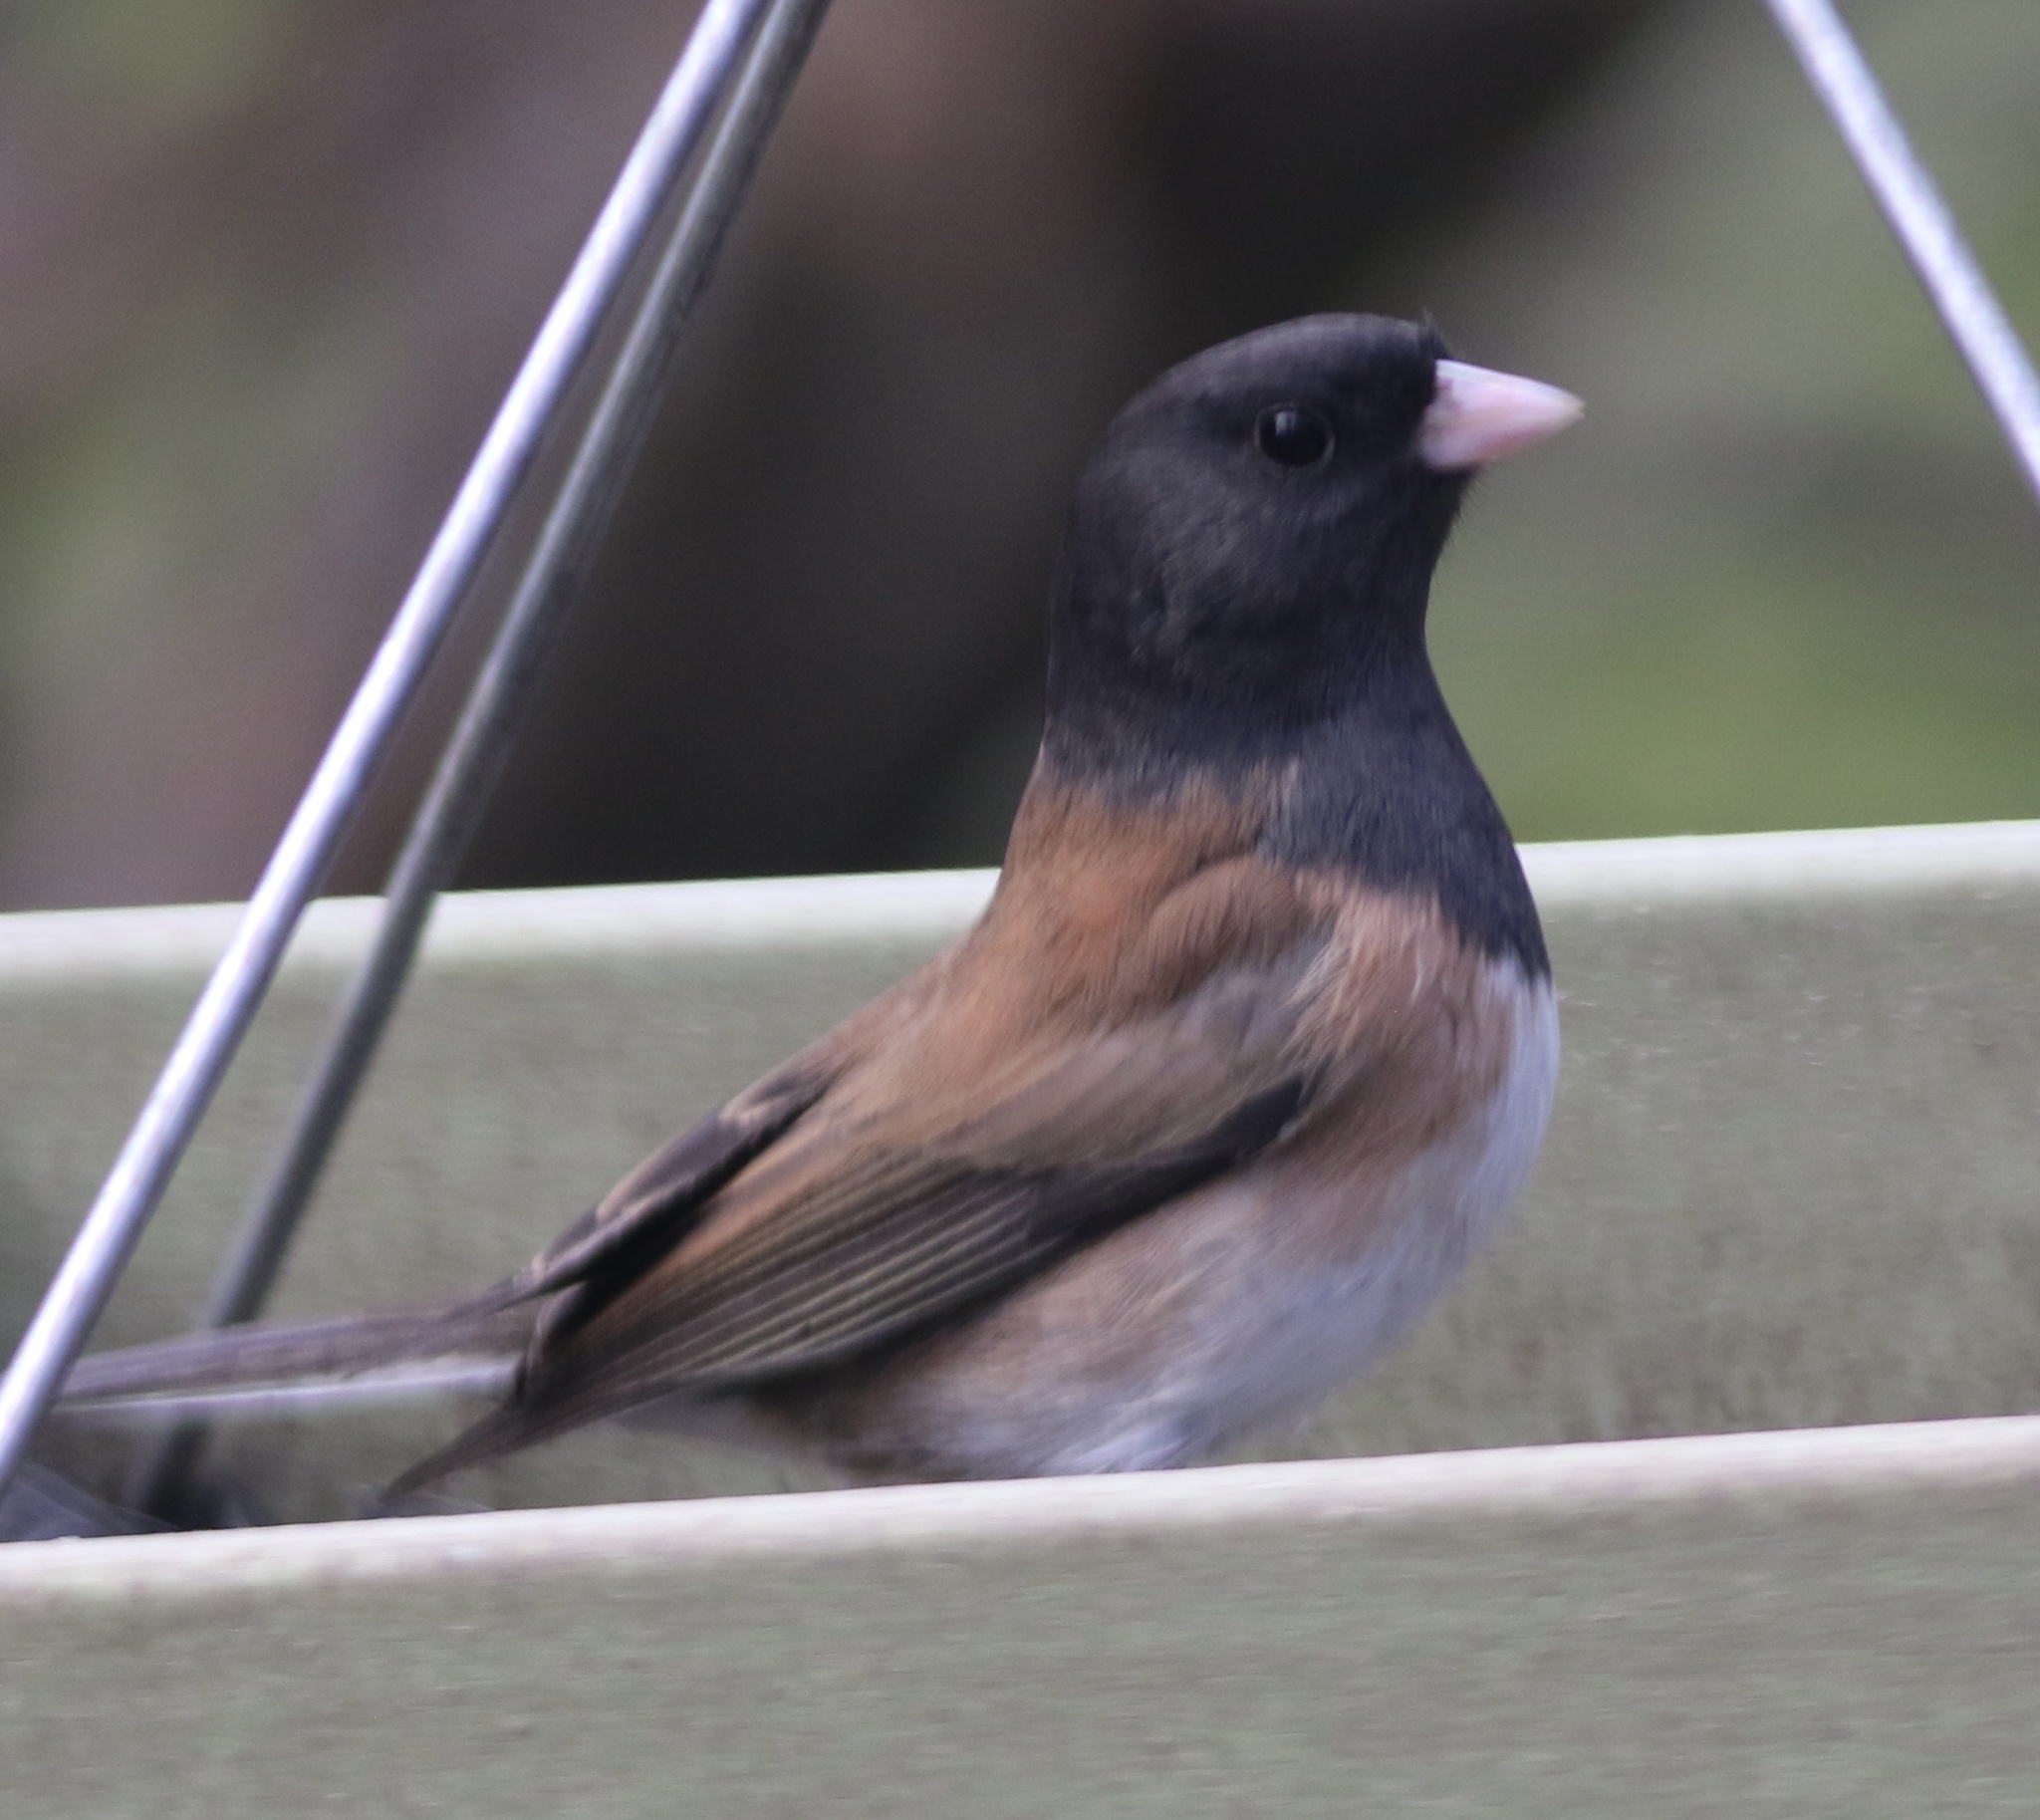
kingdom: Animalia
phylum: Chordata
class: Aves
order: Passeriformes
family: Passerellidae
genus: Junco
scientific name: Junco hyemalis
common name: Dark-eyed junco
